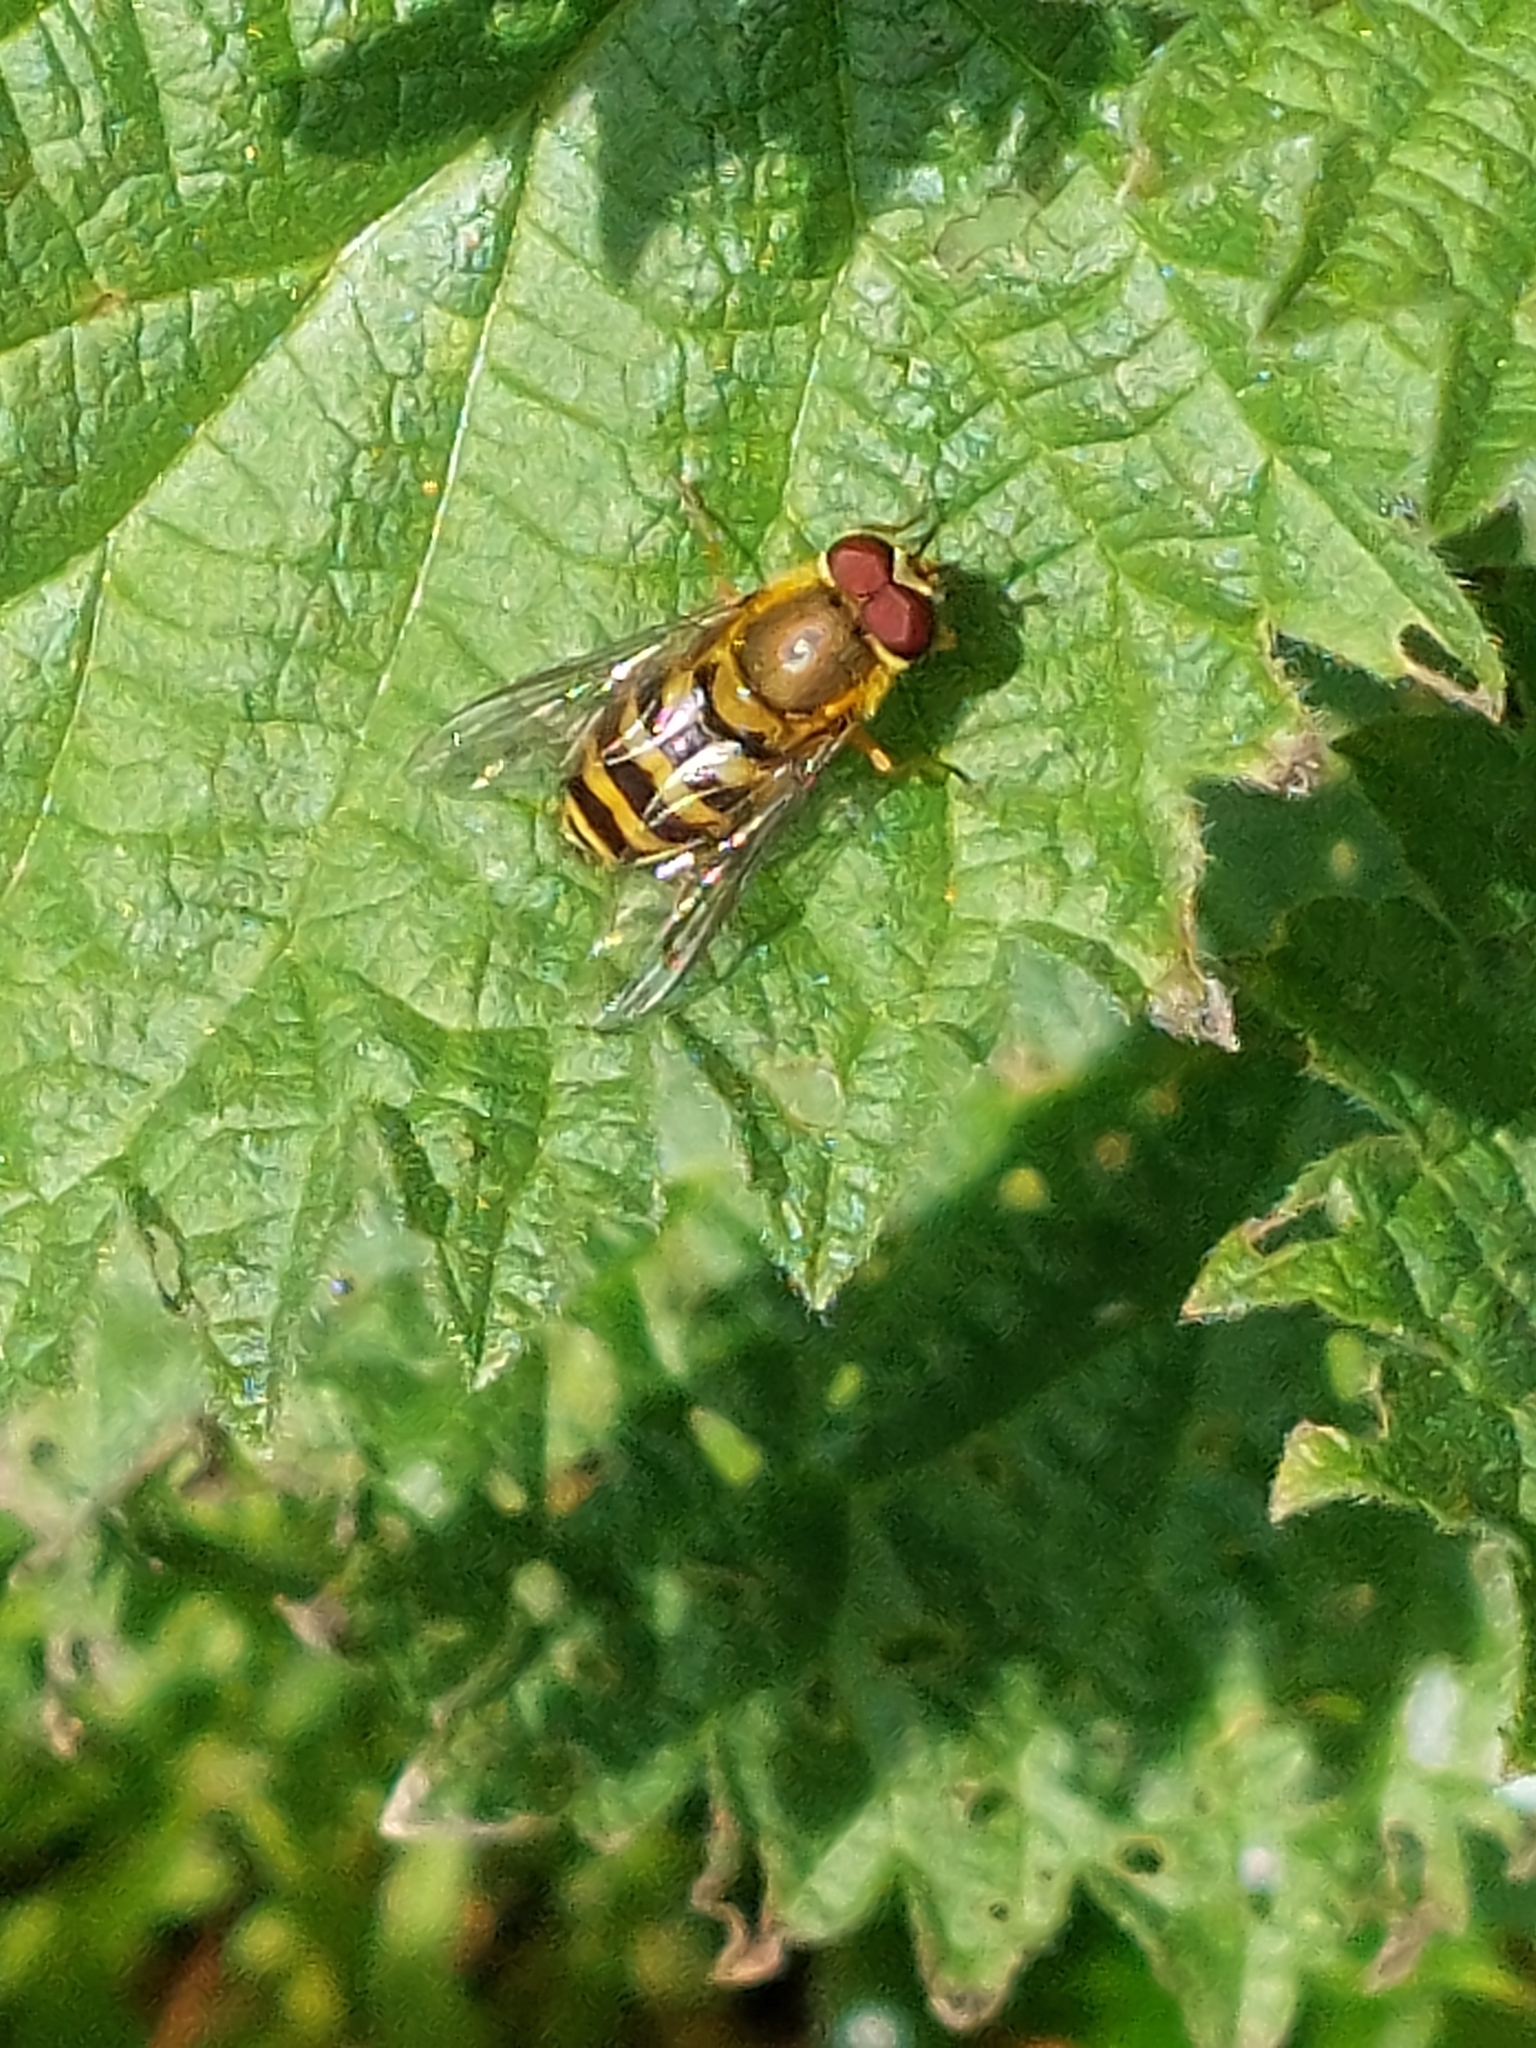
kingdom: Animalia
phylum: Arthropoda
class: Insecta
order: Diptera
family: Syrphidae
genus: Syrphus
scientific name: Syrphus
